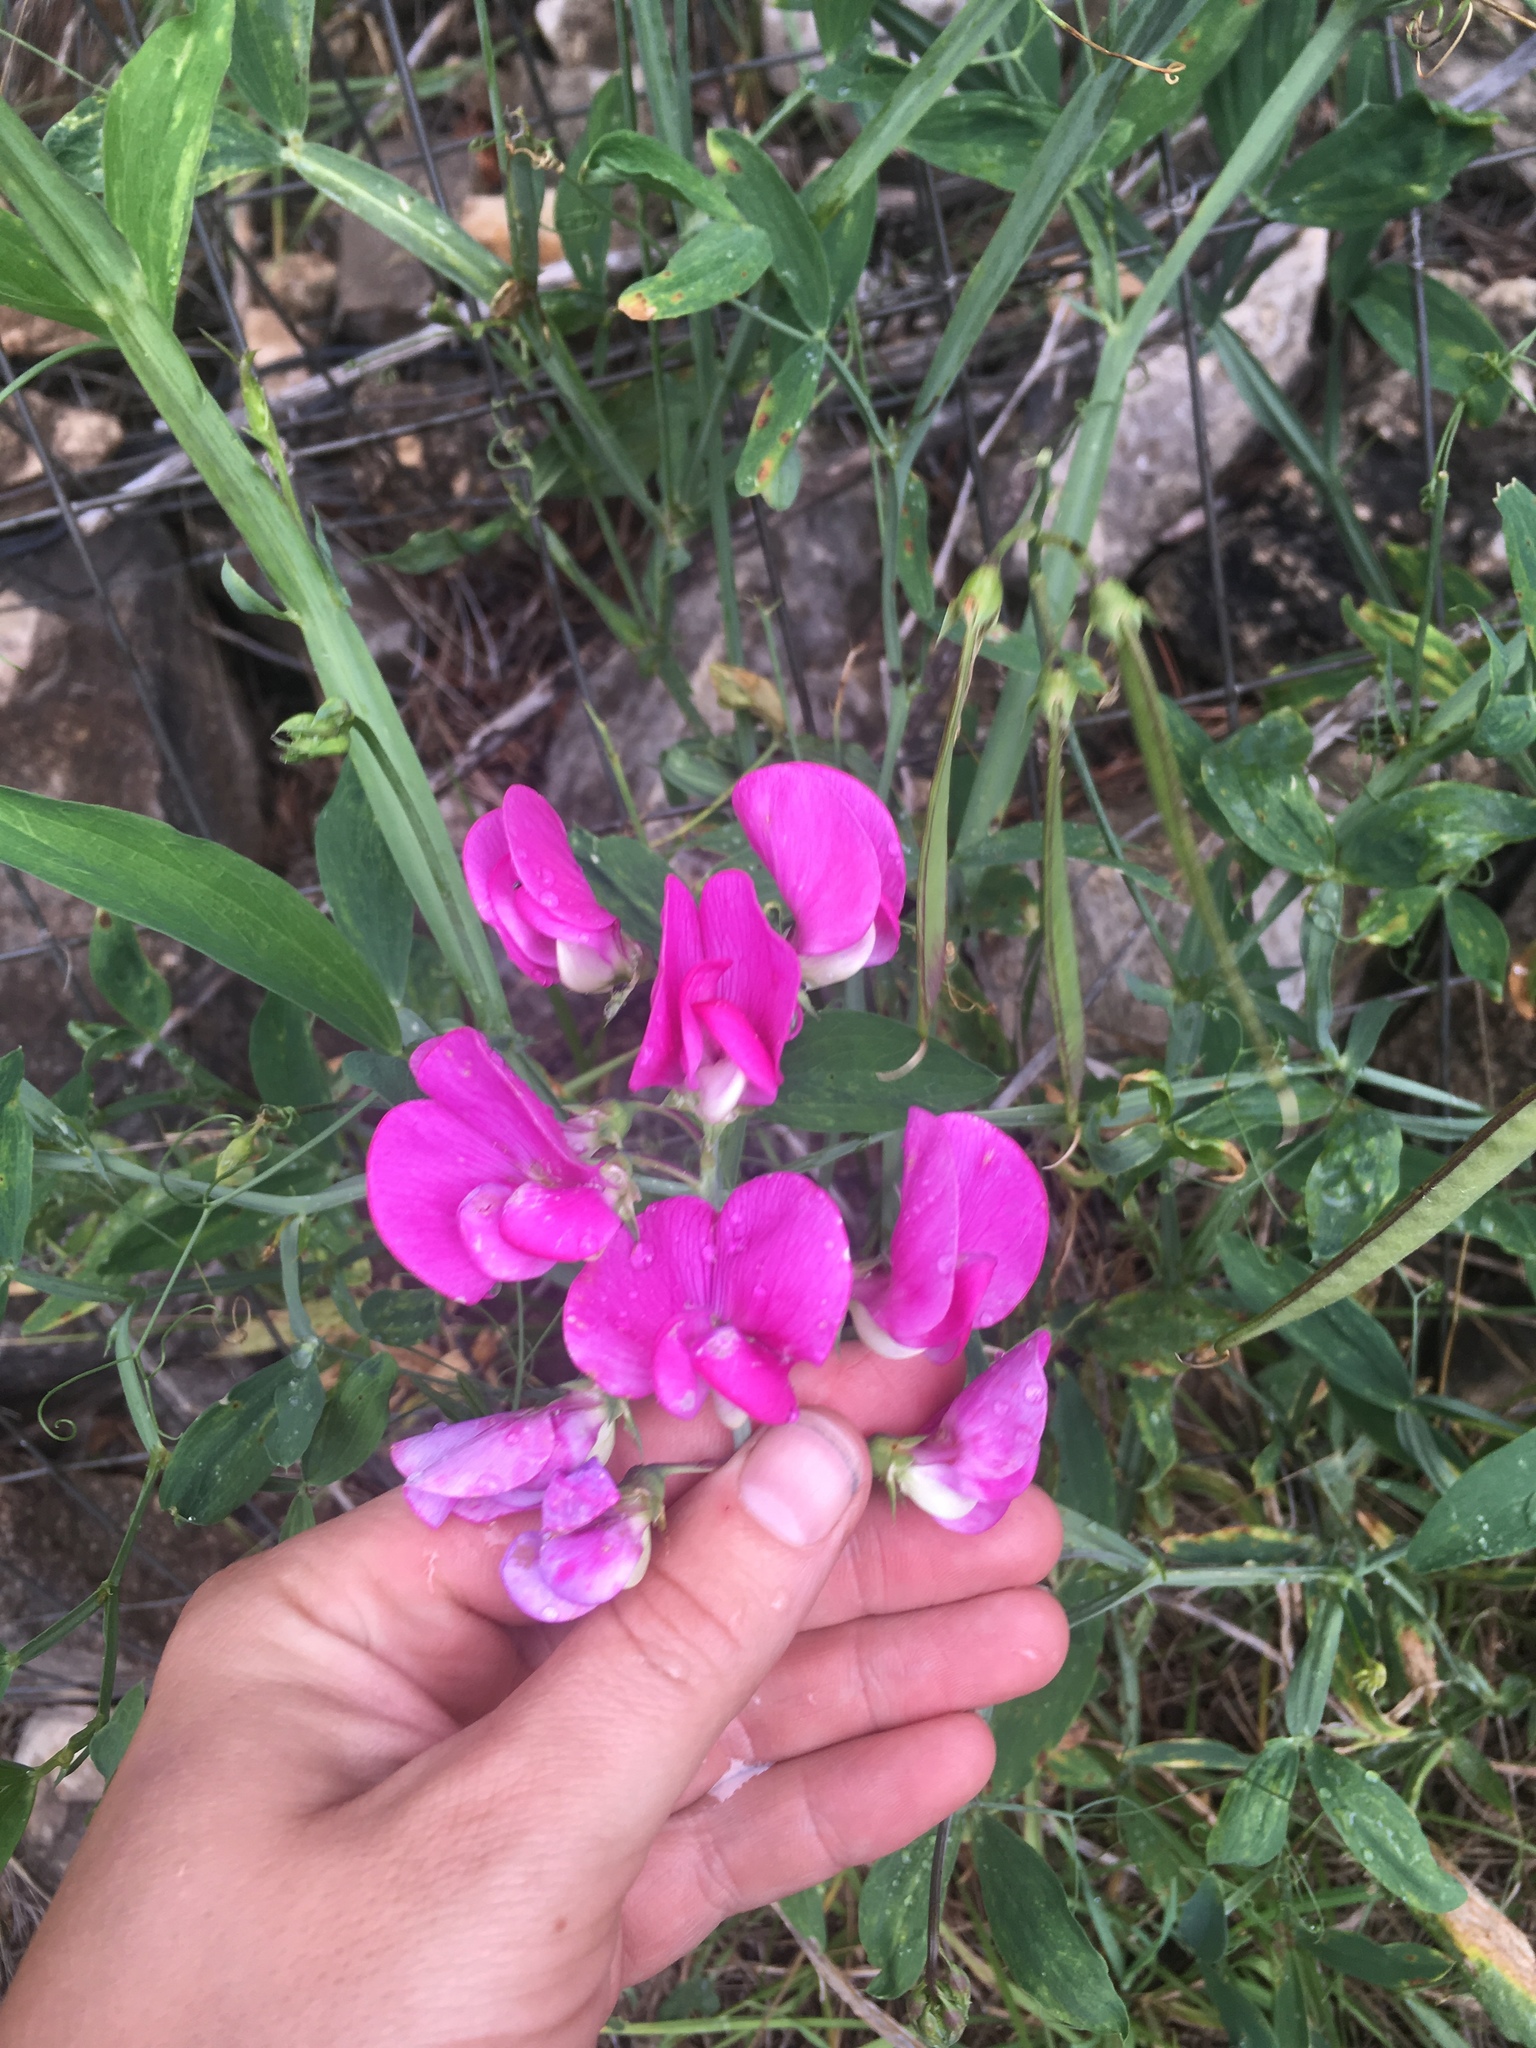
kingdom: Plantae
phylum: Tracheophyta
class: Magnoliopsida
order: Fabales
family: Fabaceae
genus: Lathyrus
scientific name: Lathyrus latifolius
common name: Perennial pea
